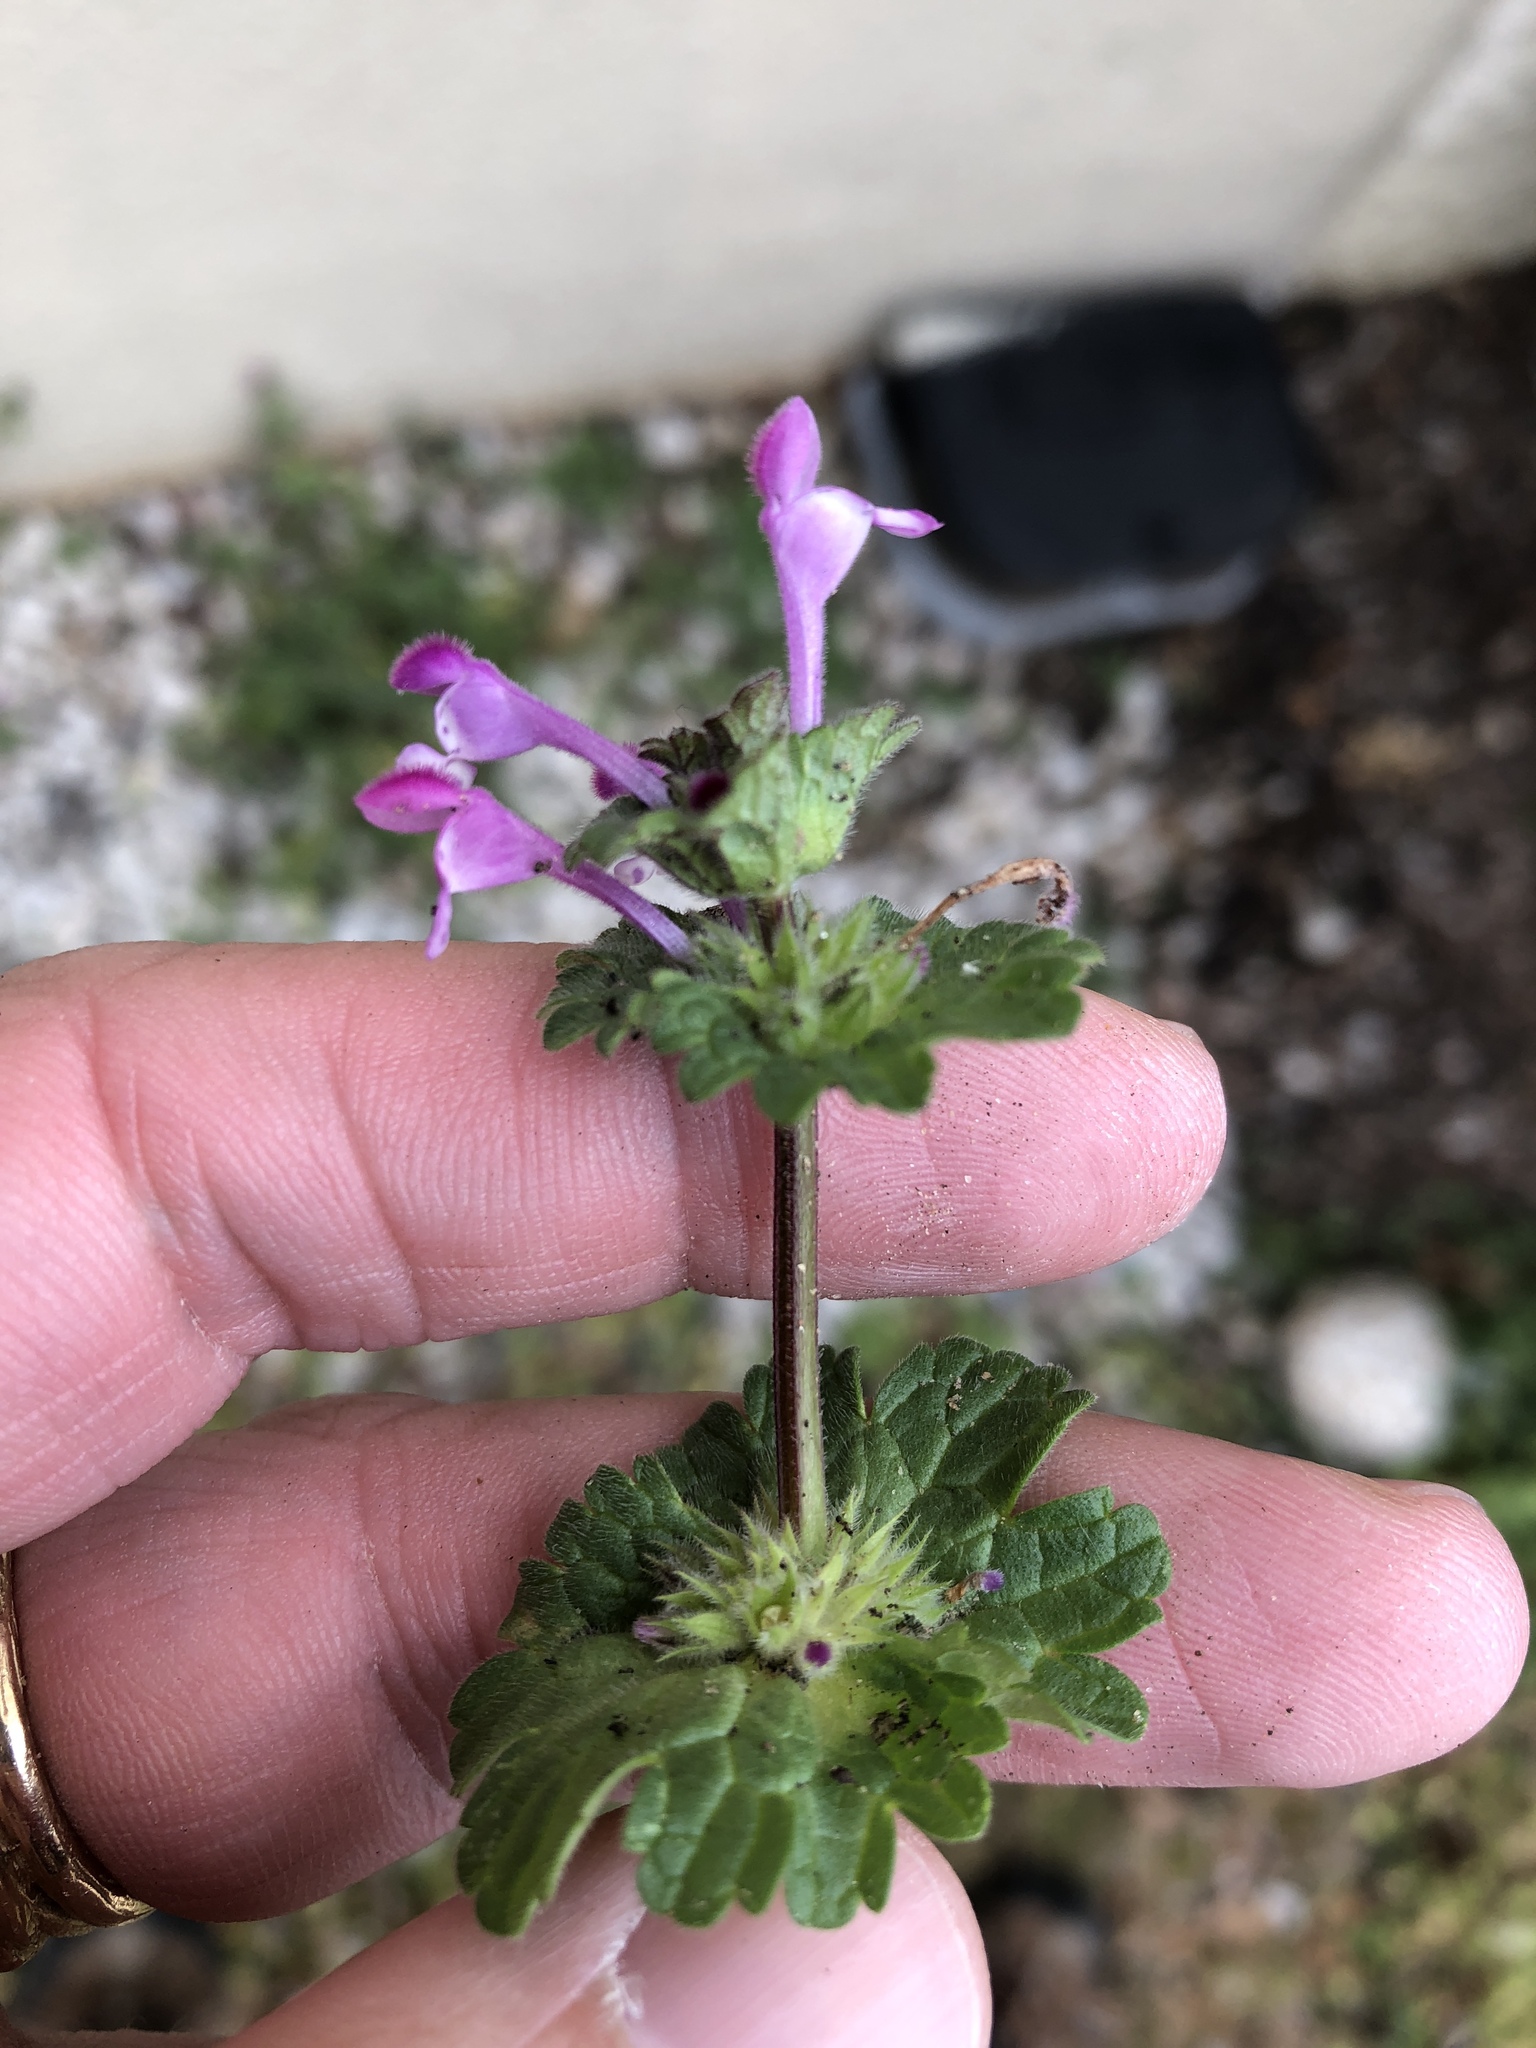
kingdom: Plantae
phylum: Tracheophyta
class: Magnoliopsida
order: Lamiales
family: Lamiaceae
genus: Lamium
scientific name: Lamium amplexicaule
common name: Henbit dead-nettle
